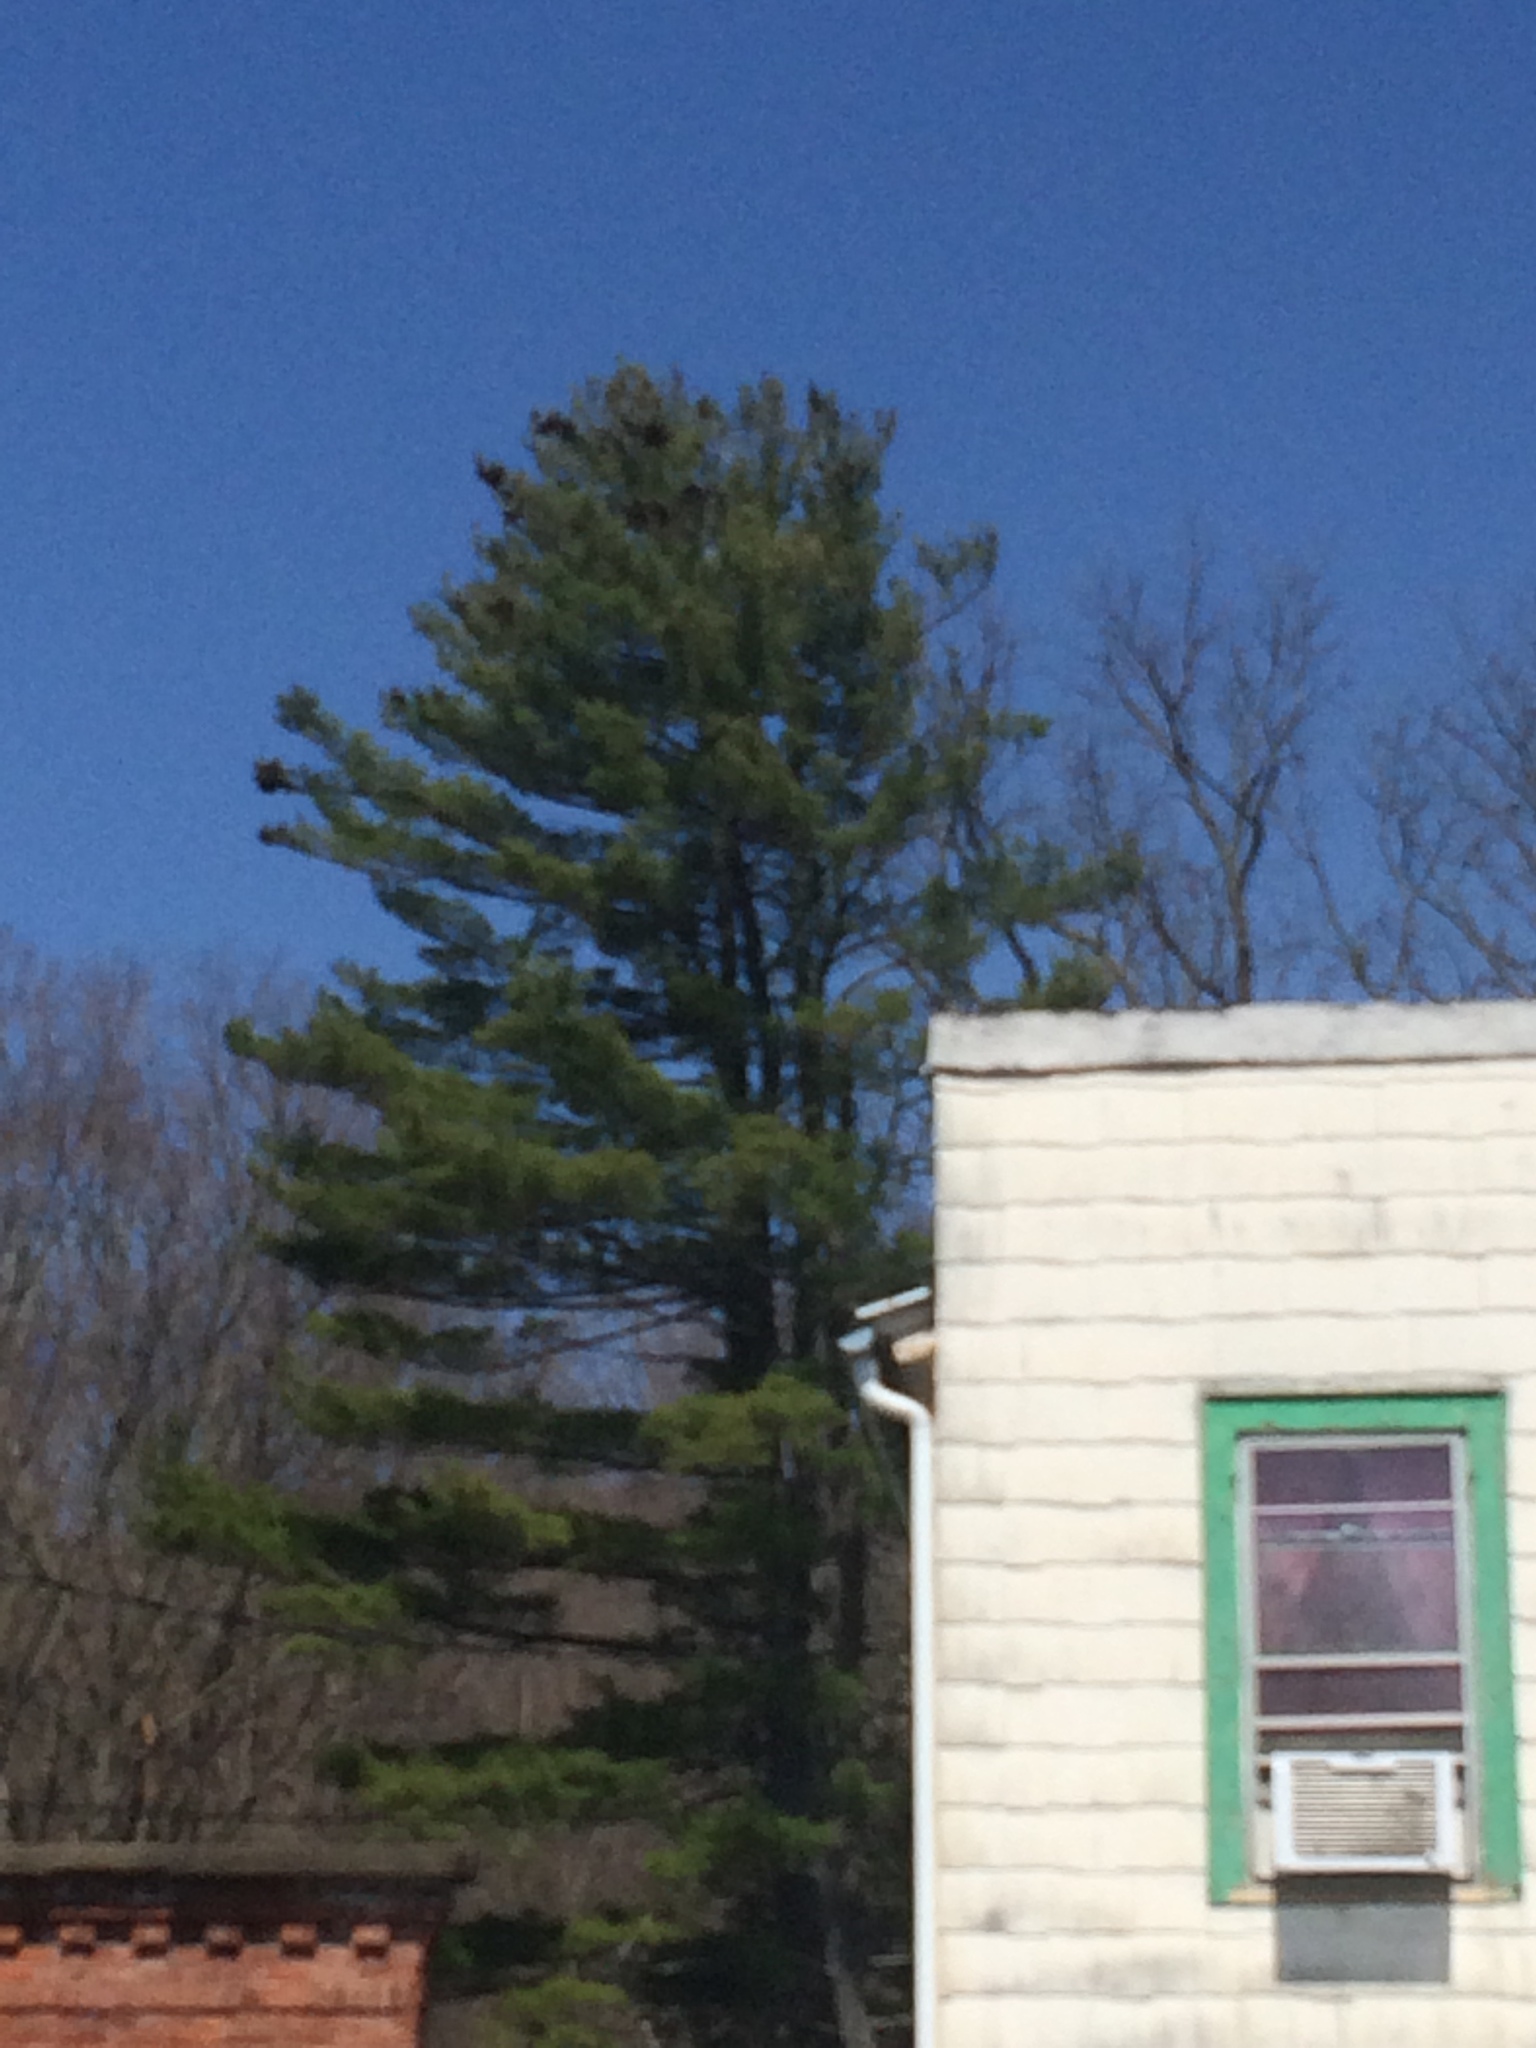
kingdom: Plantae
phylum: Tracheophyta
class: Pinopsida
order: Pinales
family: Pinaceae
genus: Pinus
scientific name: Pinus strobus
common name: Weymouth pine
